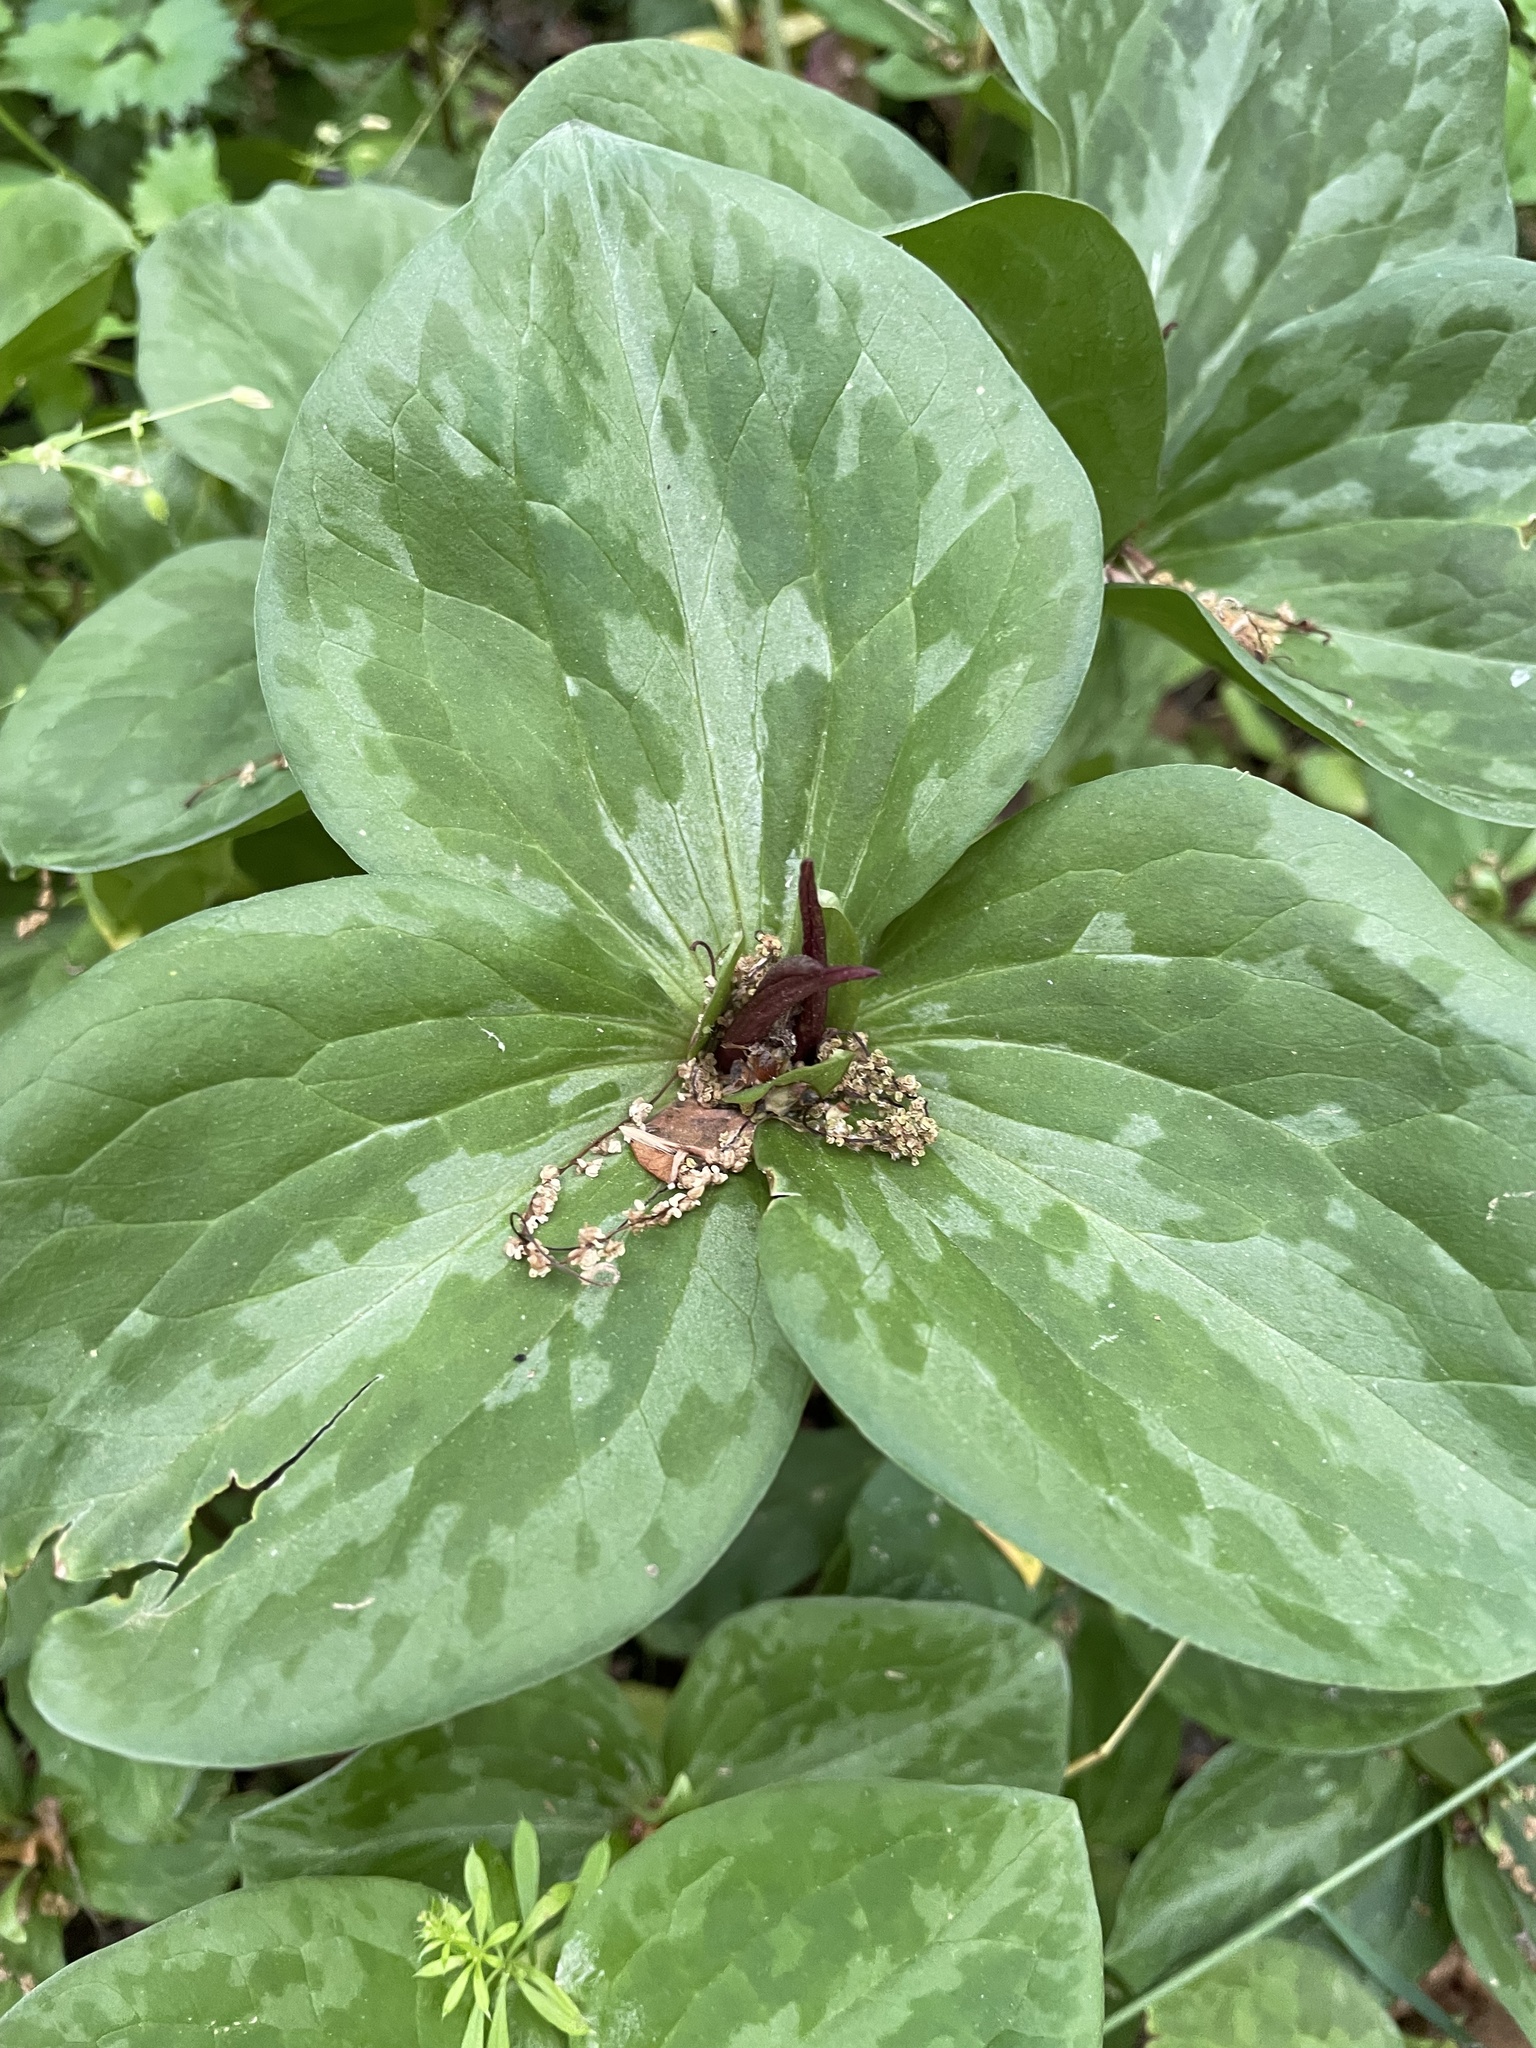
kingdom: Plantae
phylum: Tracheophyta
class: Liliopsida
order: Liliales
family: Melanthiaceae
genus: Trillium
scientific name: Trillium sessile
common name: Sessile trillium
